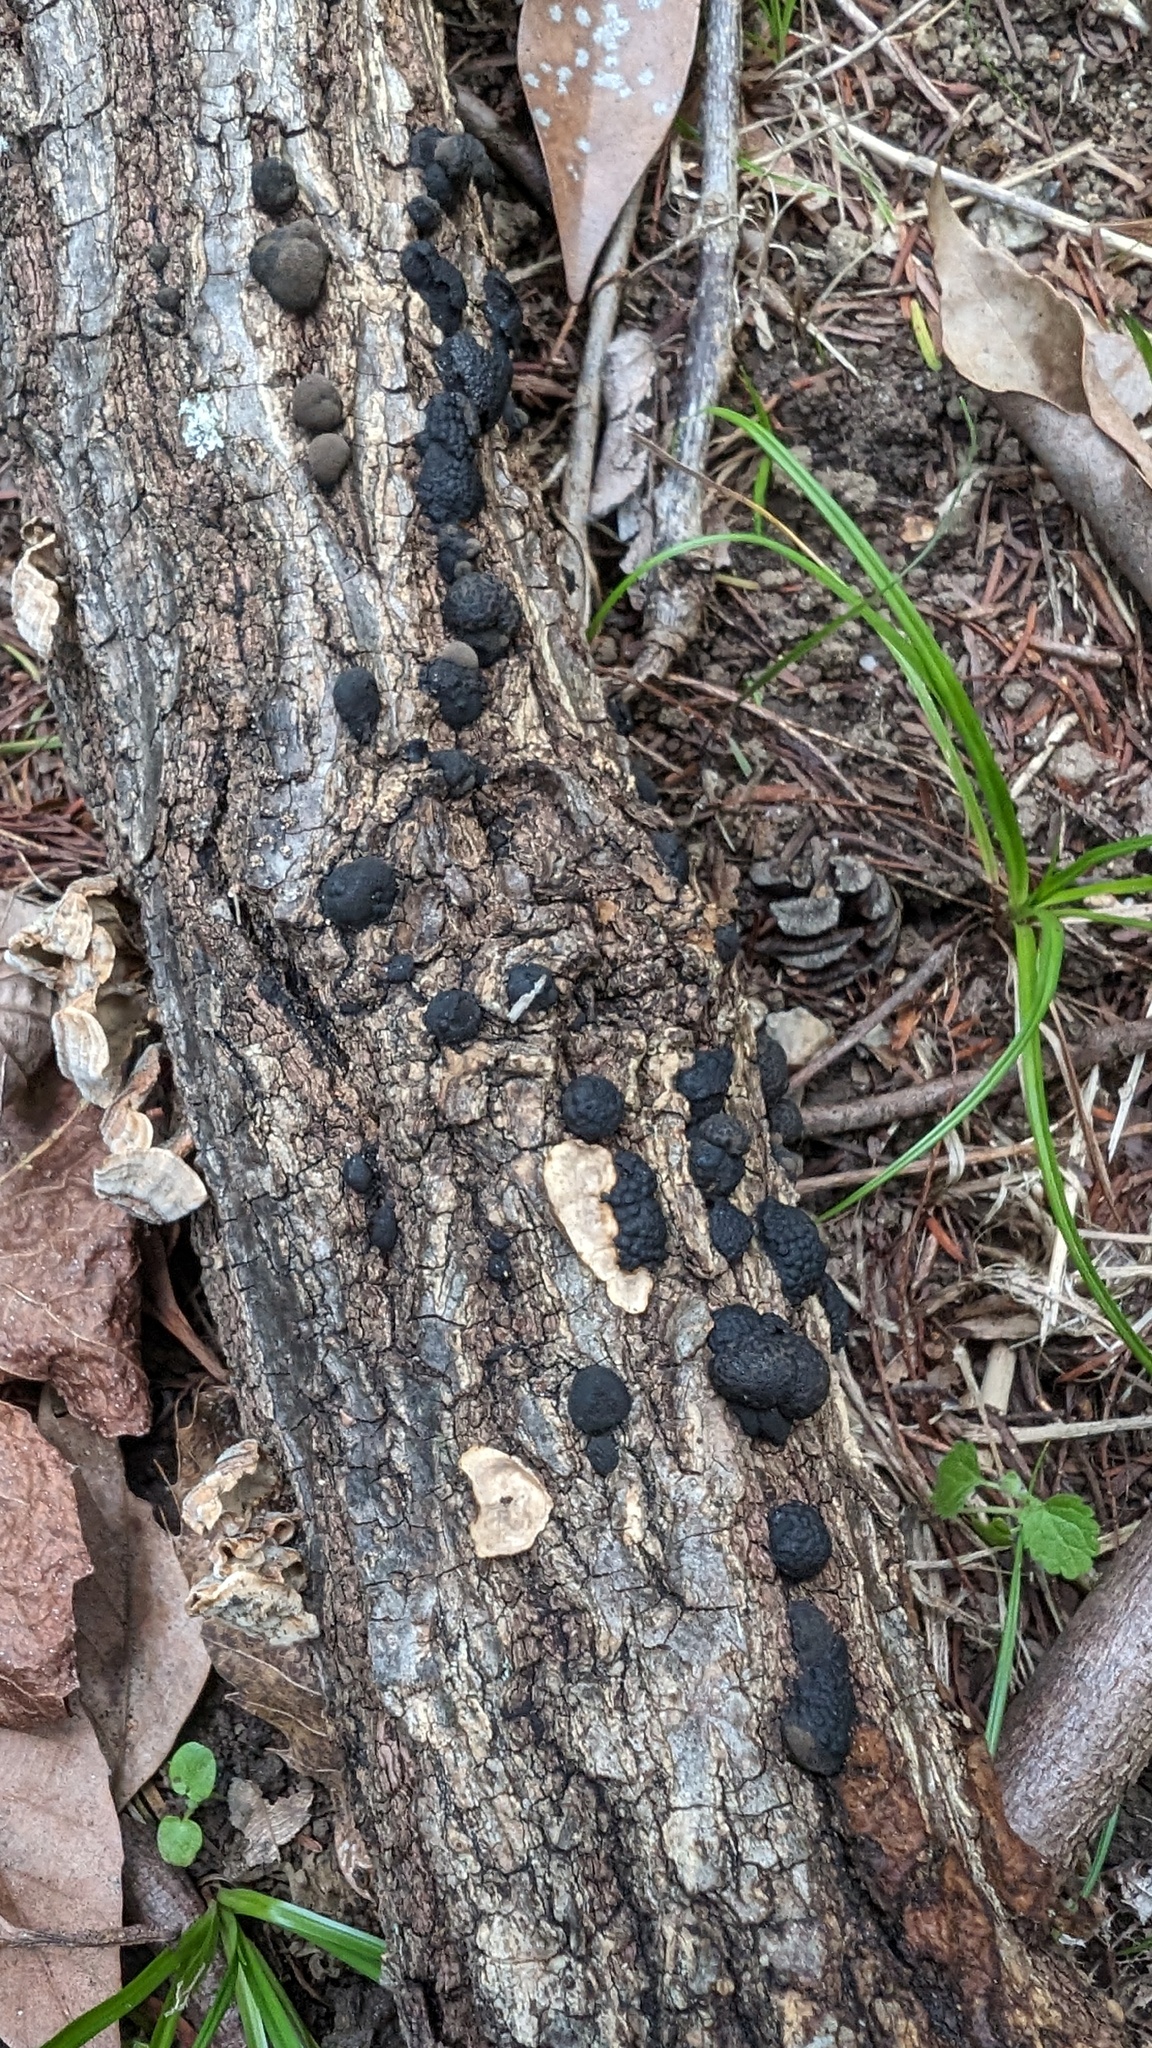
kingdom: Fungi
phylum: Ascomycota
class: Sordariomycetes
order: Xylariales
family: Hypoxylaceae
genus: Annulohypoxylon
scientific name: Annulohypoxylon truncatum
